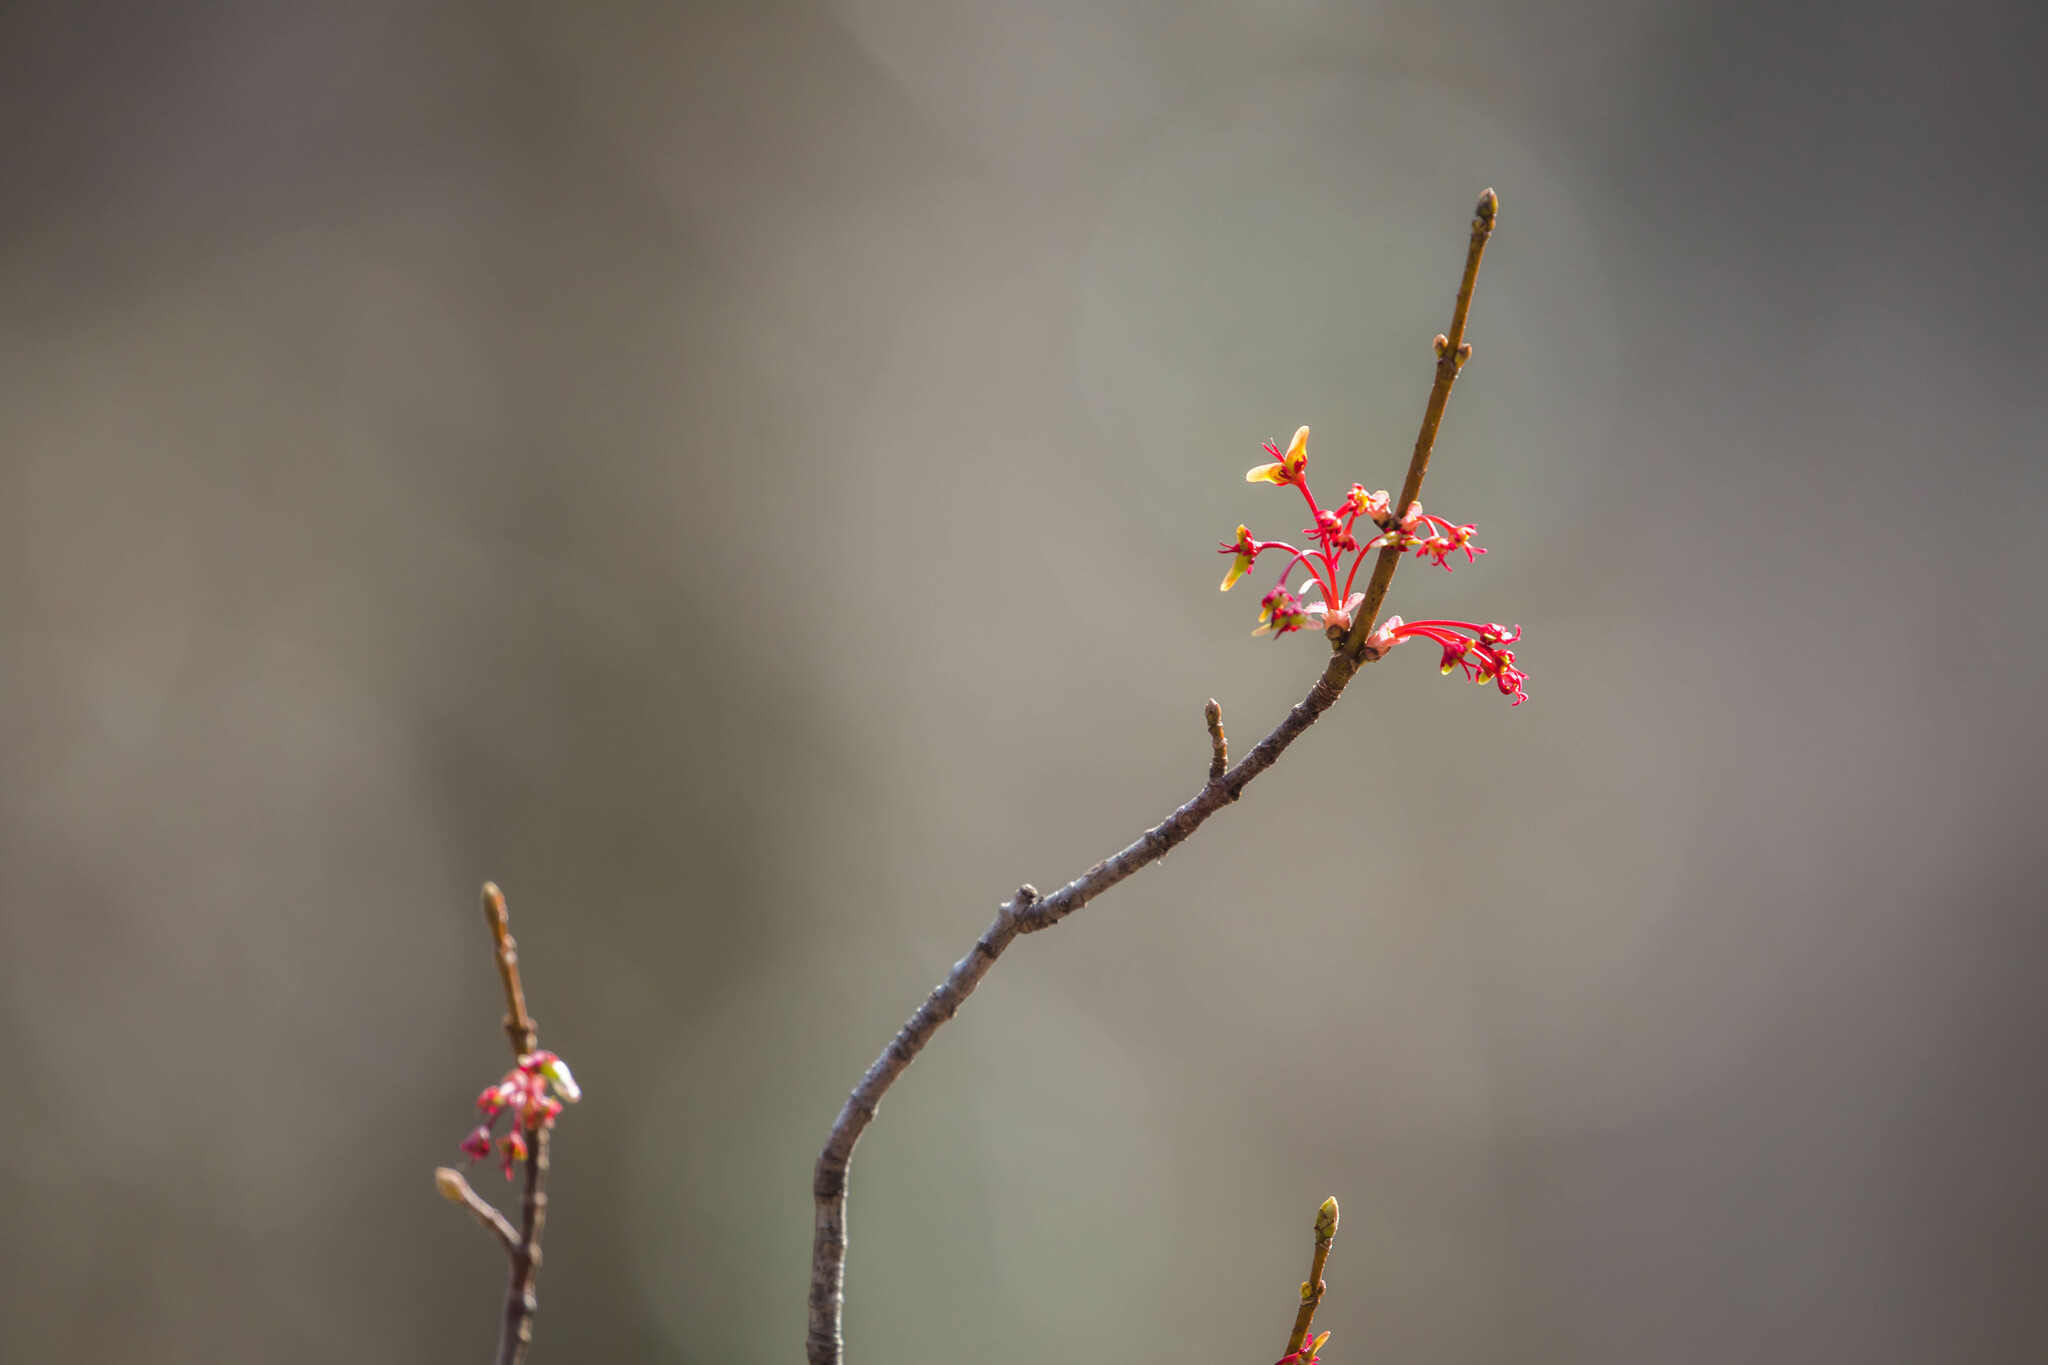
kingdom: Plantae
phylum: Tracheophyta
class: Magnoliopsida
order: Sapindales
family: Sapindaceae
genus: Acer
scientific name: Acer rubrum
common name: Red maple
